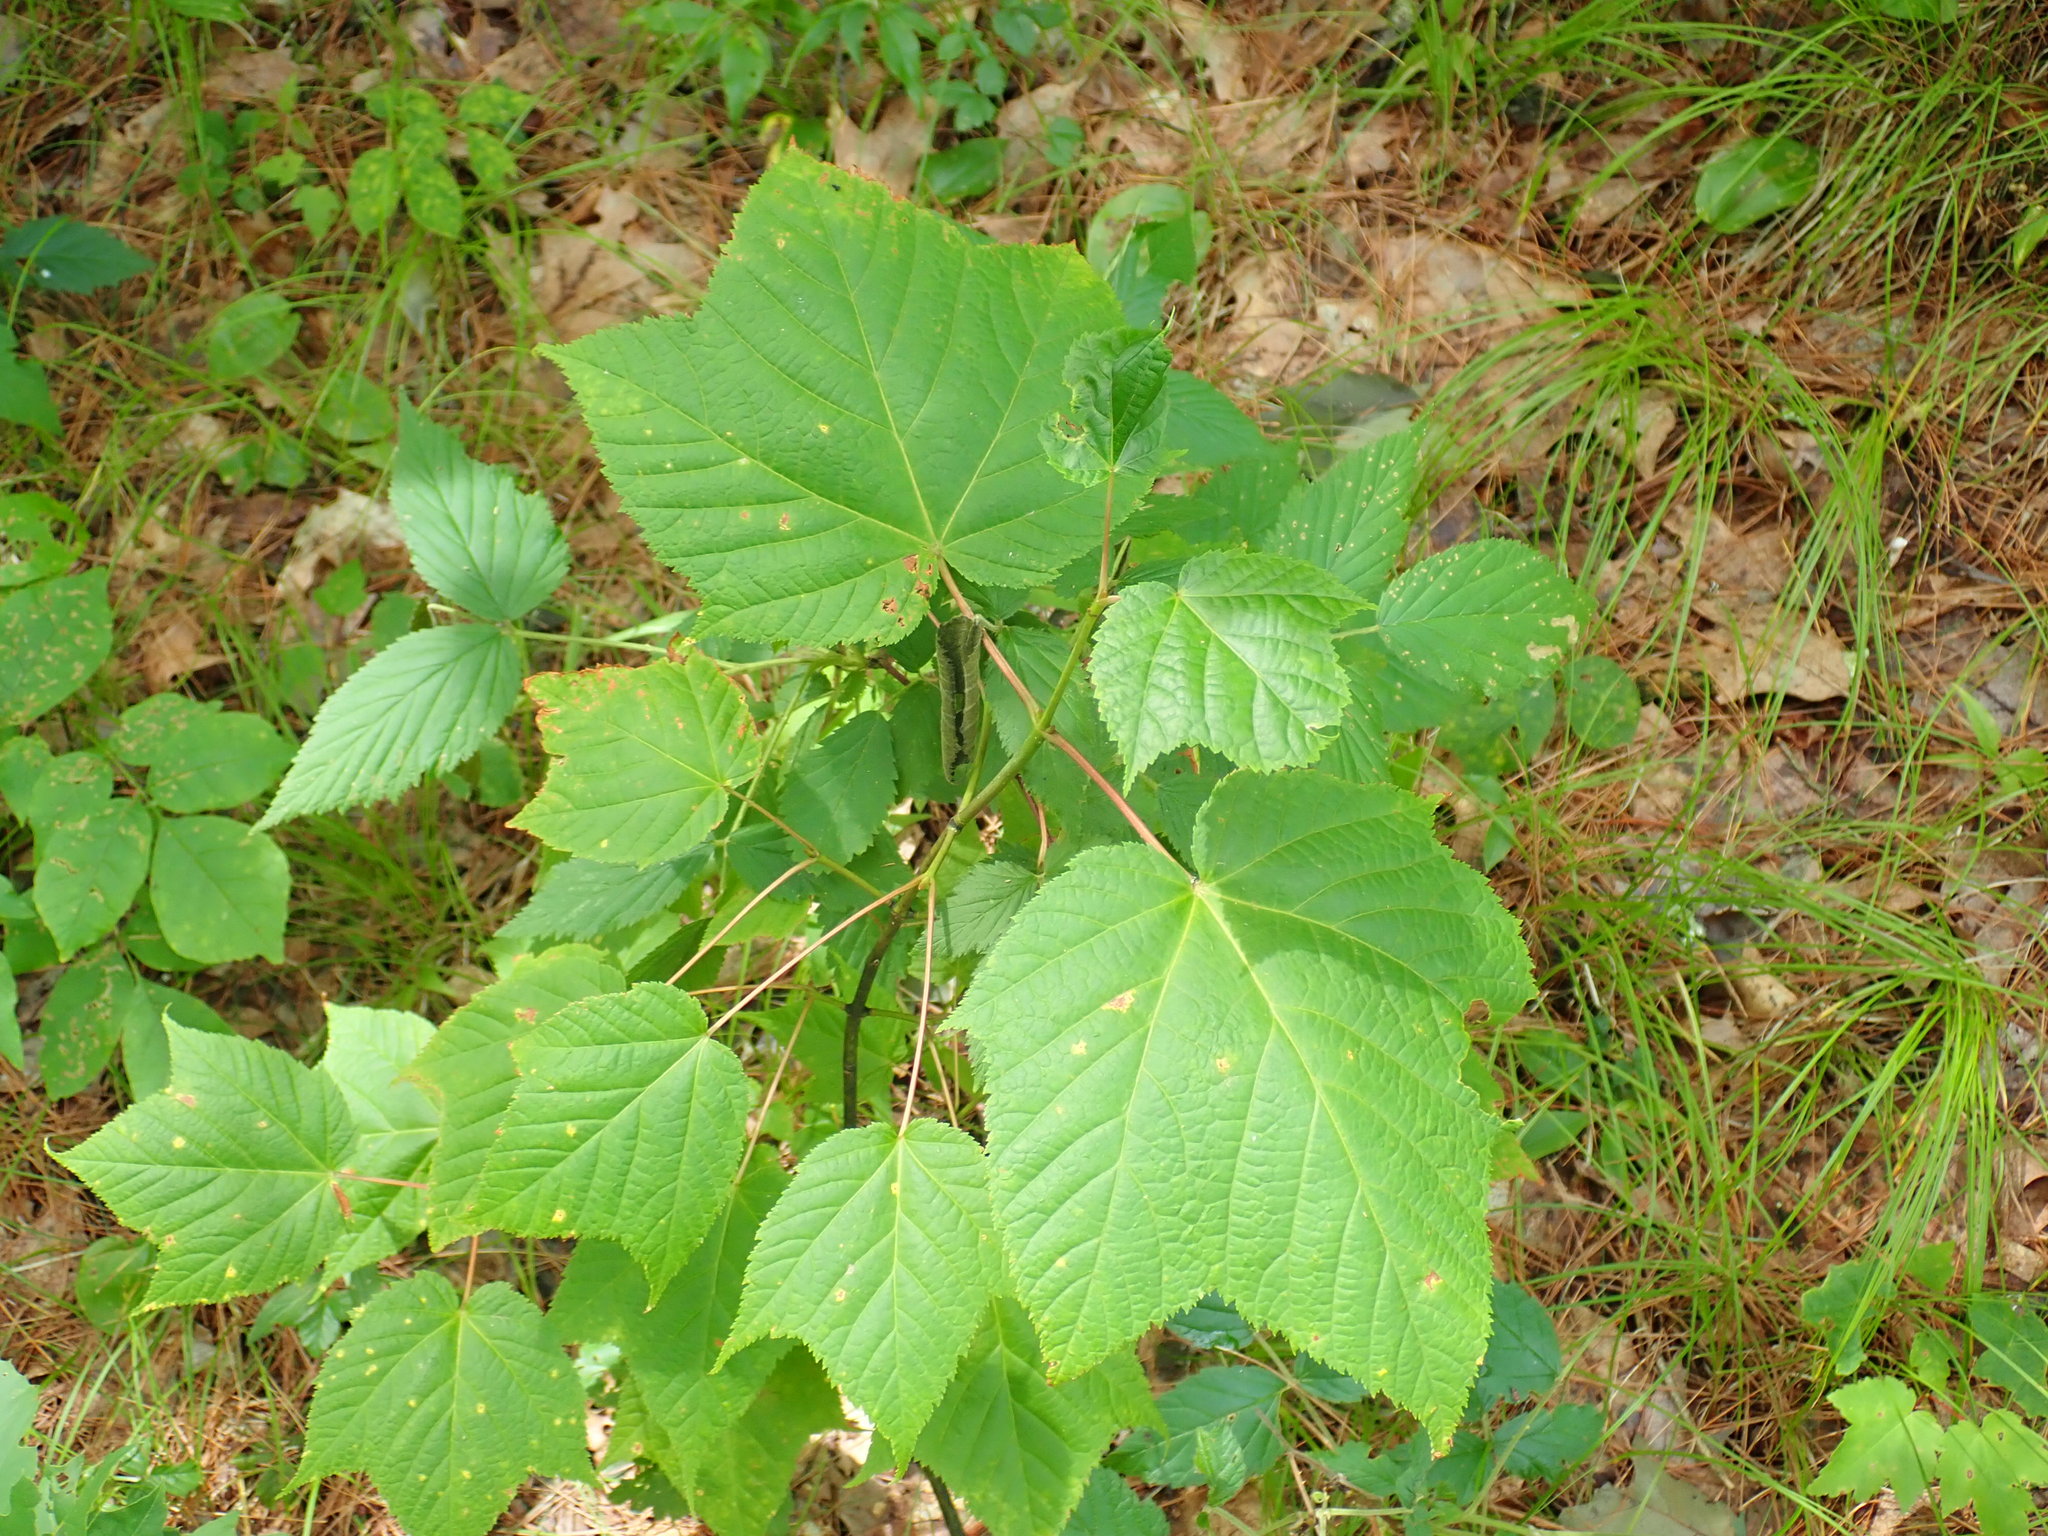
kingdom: Plantae
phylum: Tracheophyta
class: Magnoliopsida
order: Sapindales
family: Sapindaceae
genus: Acer
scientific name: Acer pensylvanicum
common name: Moosewood
